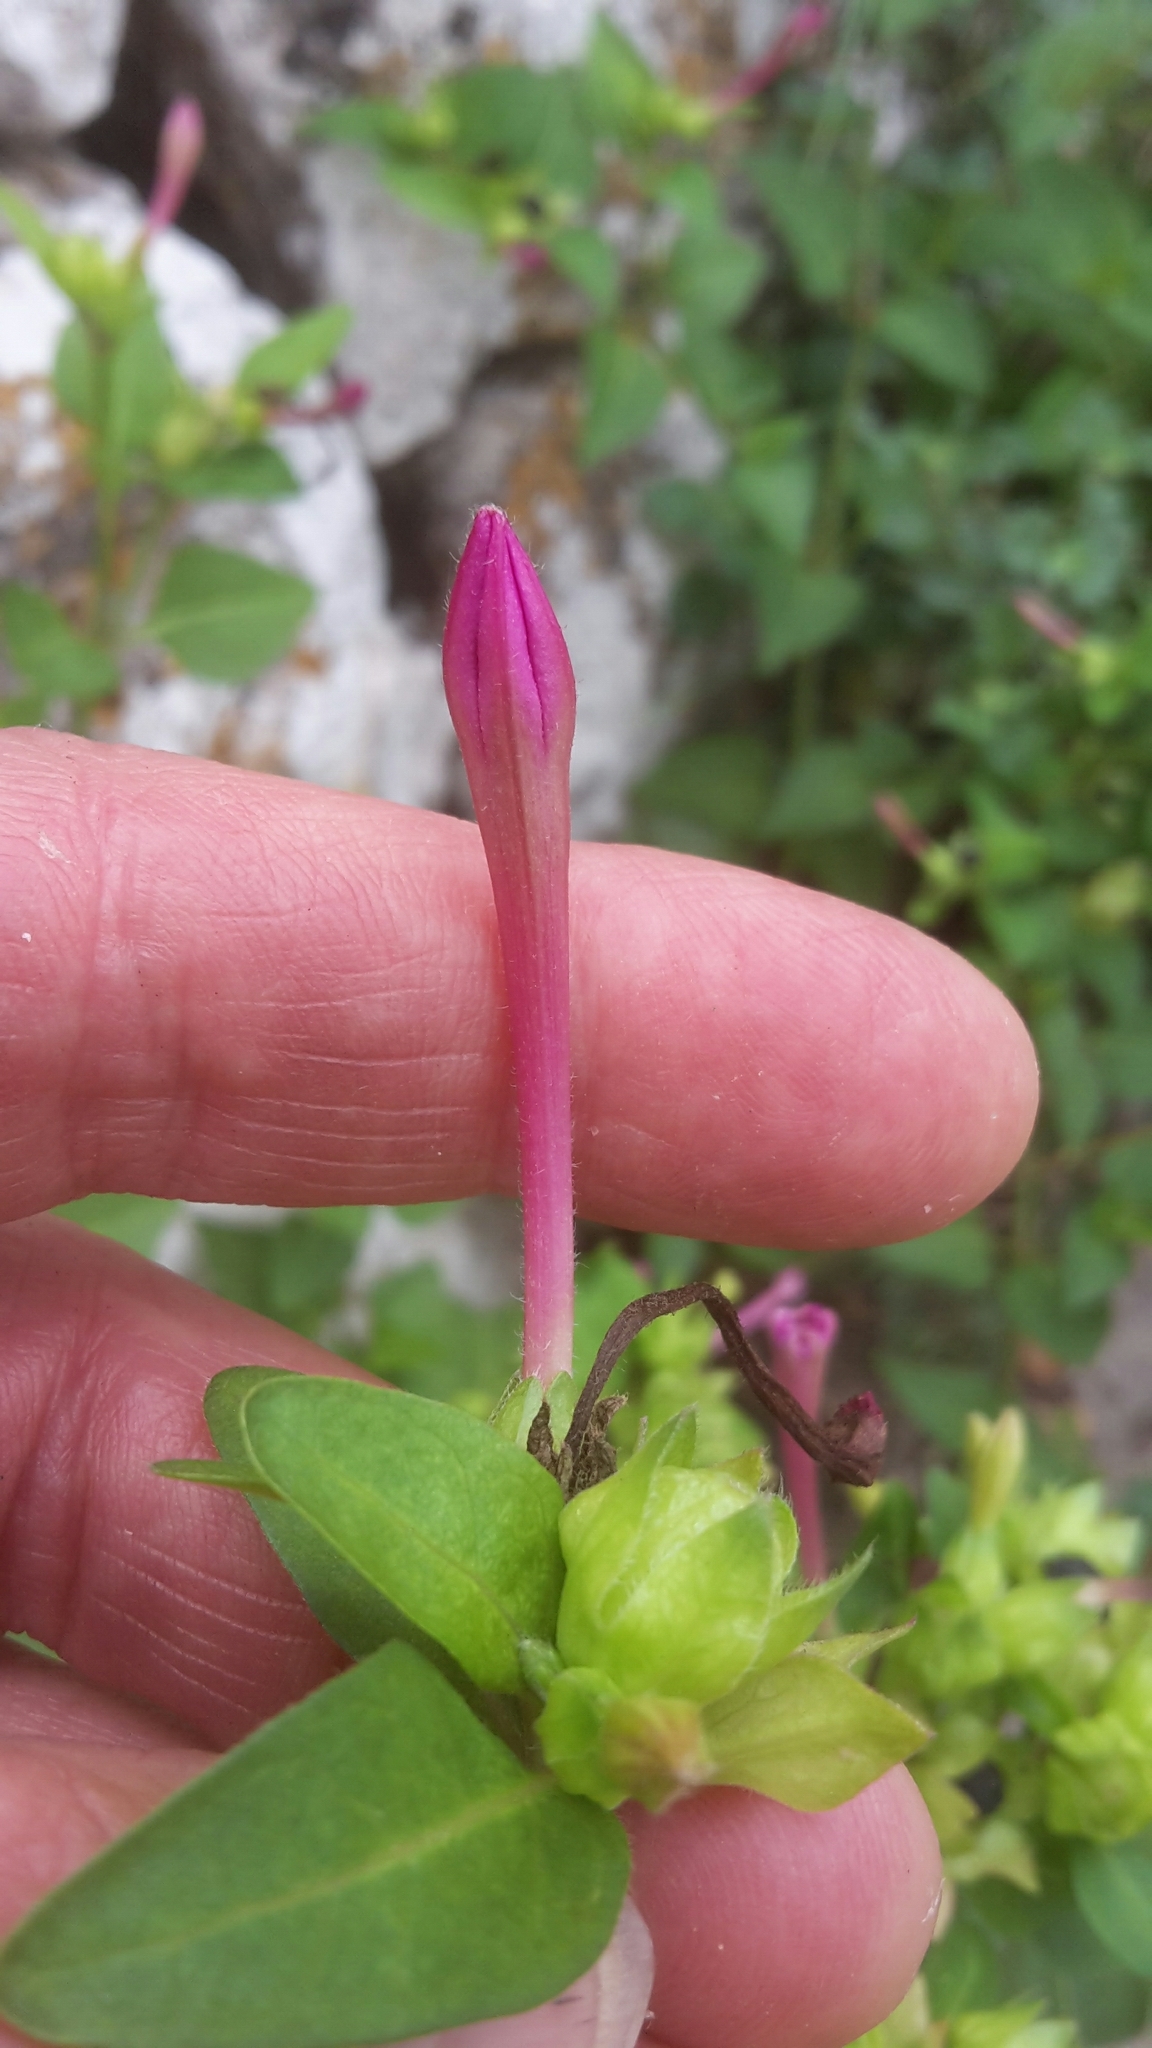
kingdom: Plantae
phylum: Tracheophyta
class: Magnoliopsida
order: Caryophyllales
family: Nyctaginaceae
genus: Mirabilis
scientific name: Mirabilis jalapa
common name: Marvel-of-peru
